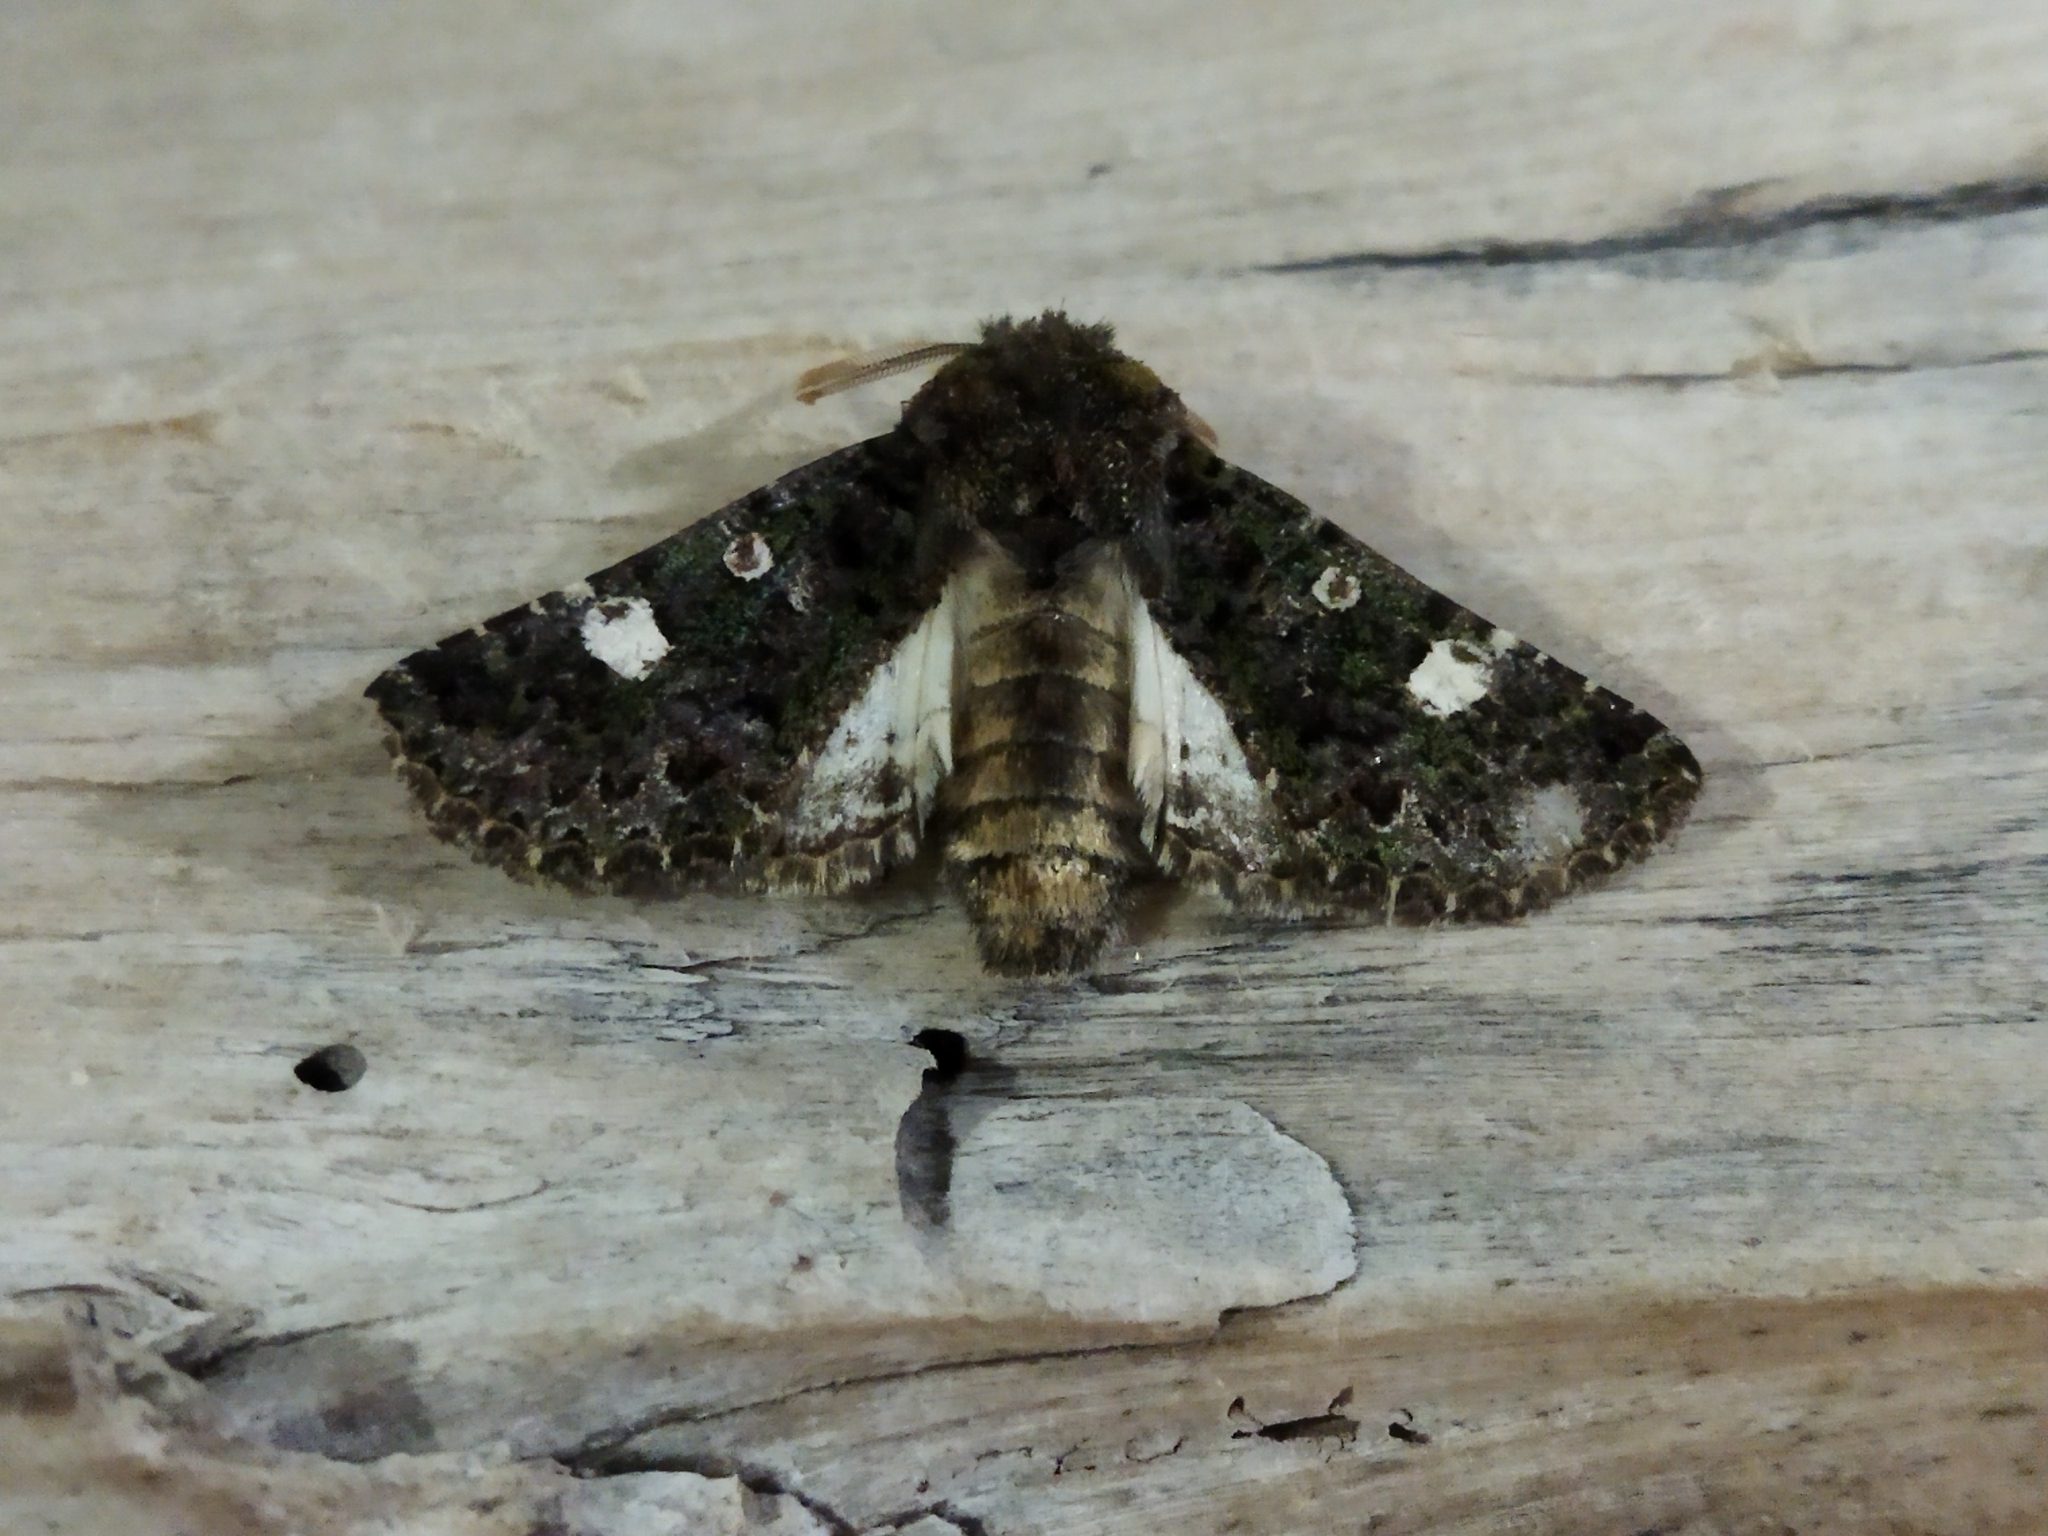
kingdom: Animalia
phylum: Arthropoda
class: Insecta
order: Lepidoptera
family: Noctuidae
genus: Valeria
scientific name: Valeria oleagina
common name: Green-brindled dot
